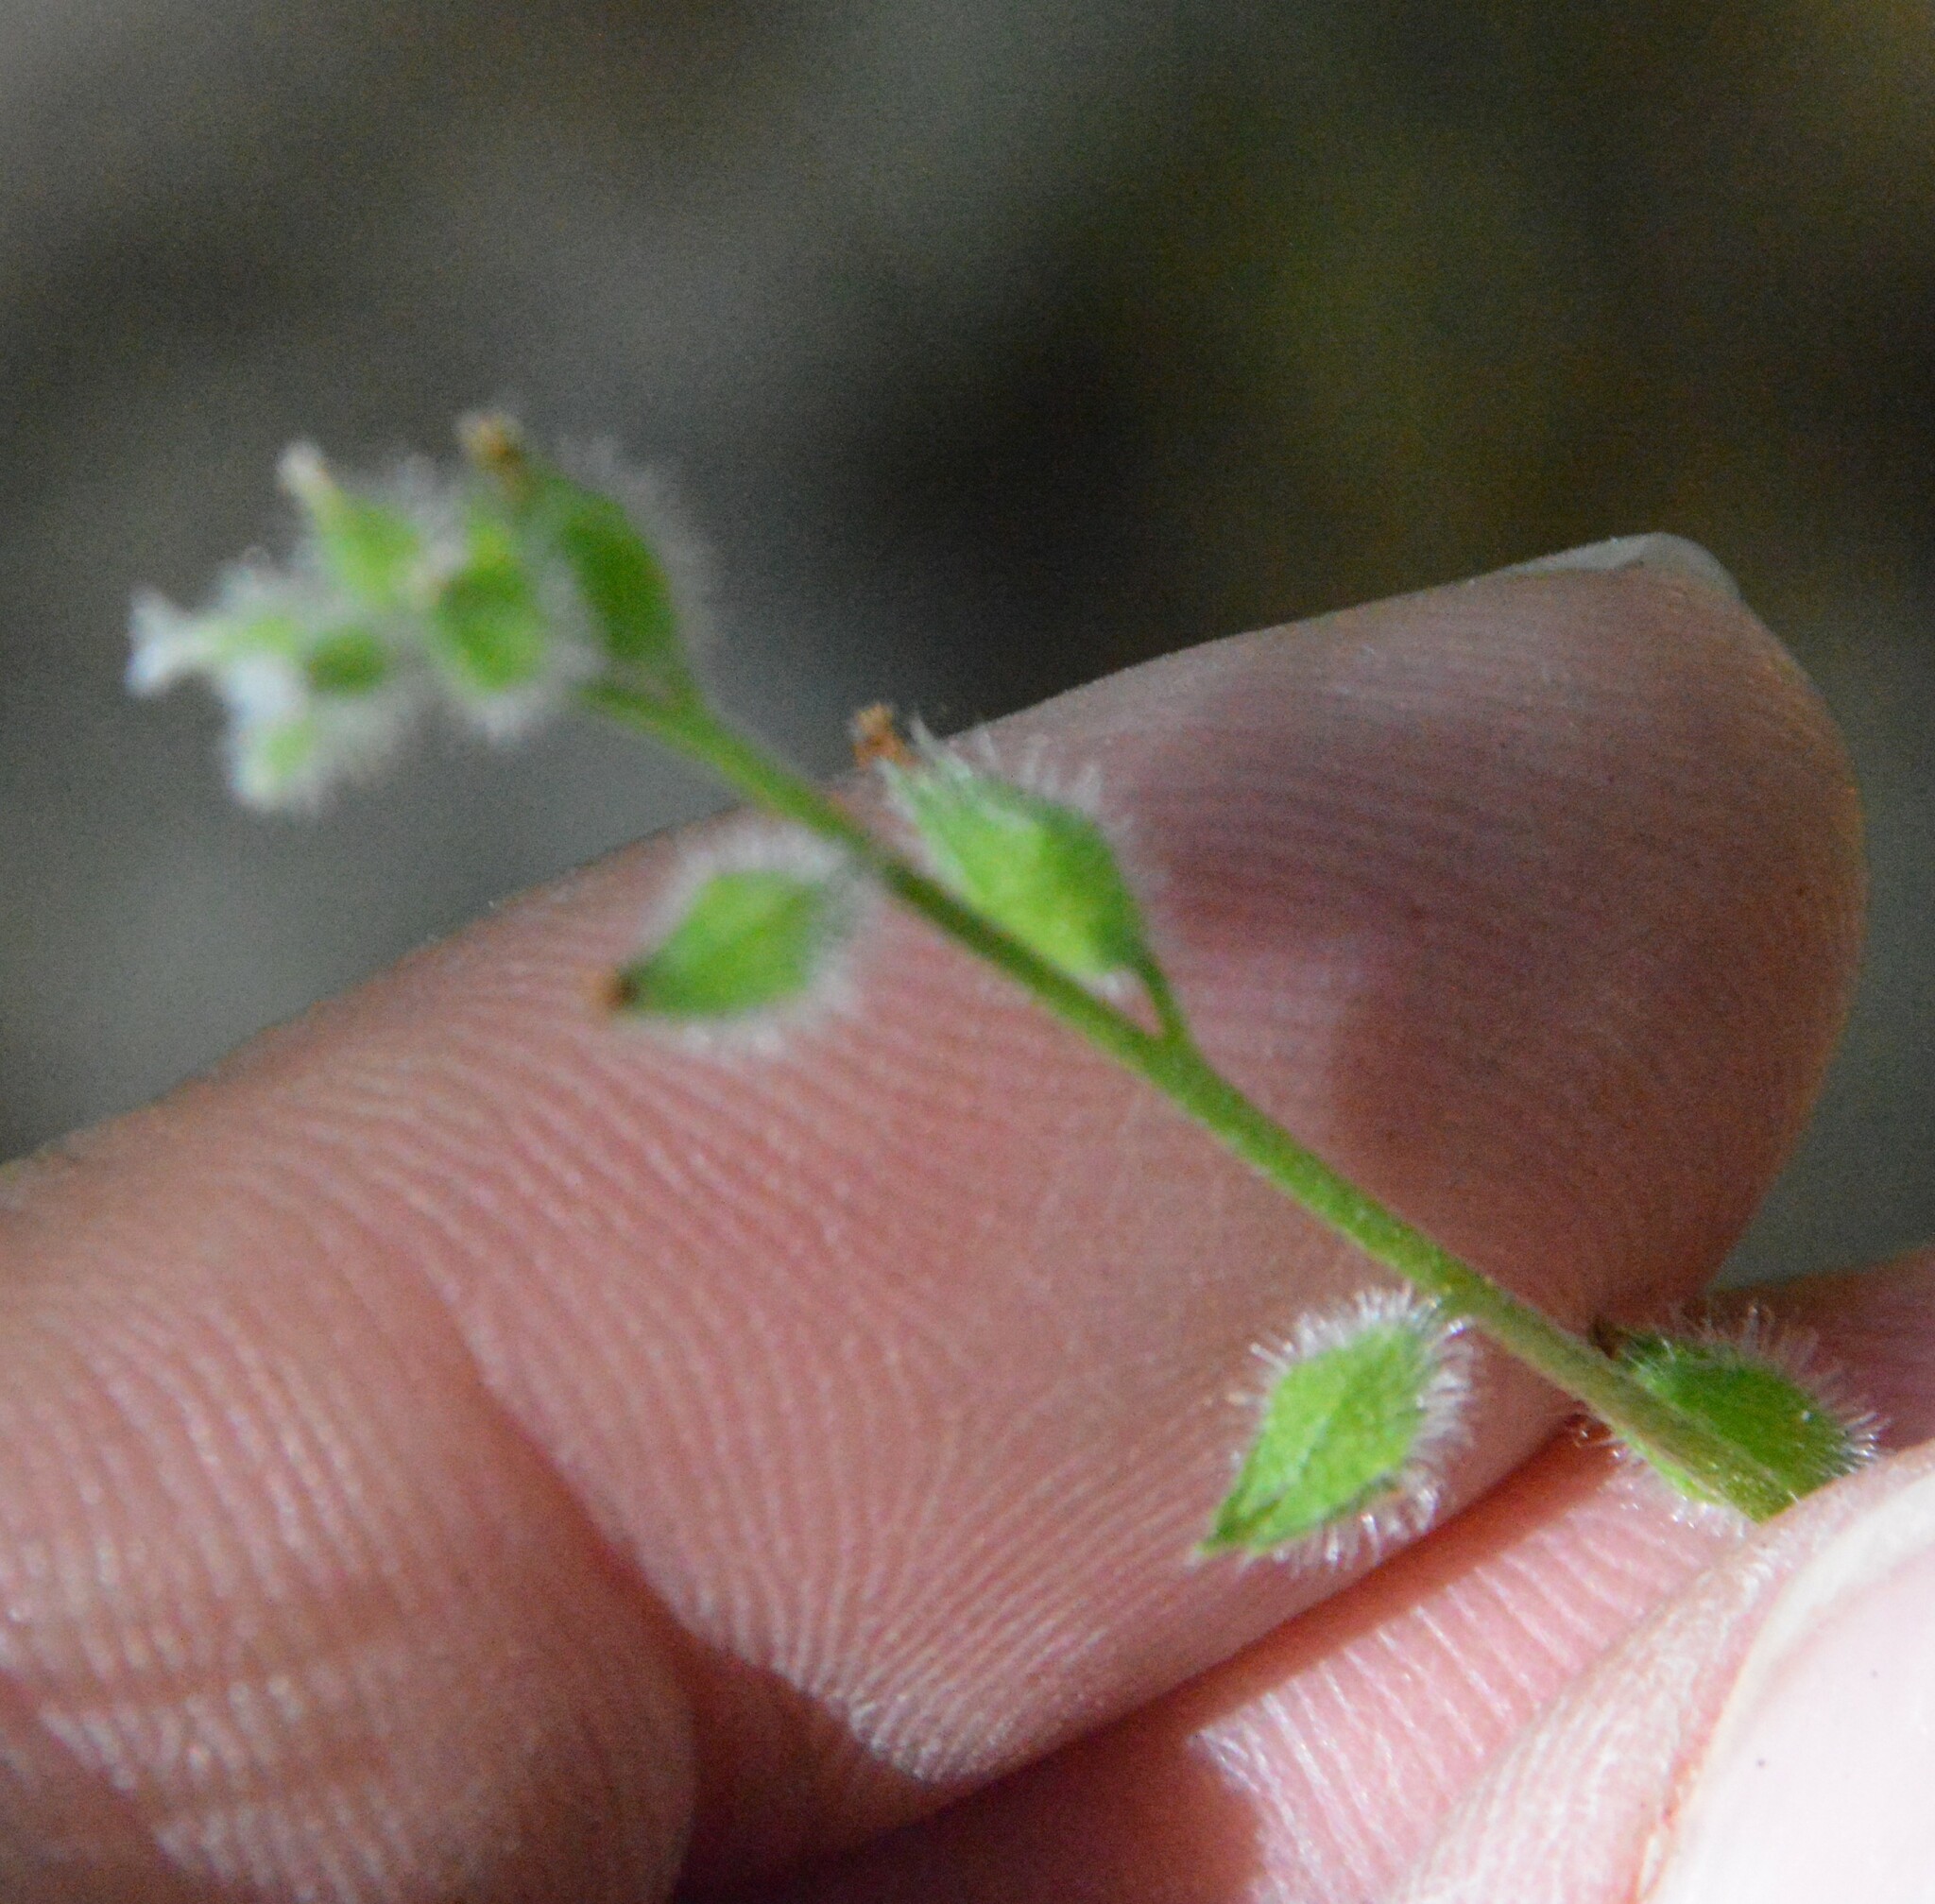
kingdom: Plantae
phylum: Tracheophyta
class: Magnoliopsida
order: Boraginales
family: Boraginaceae
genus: Myosotis
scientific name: Myosotis macrosperma
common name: Large-seed forget-me-not
